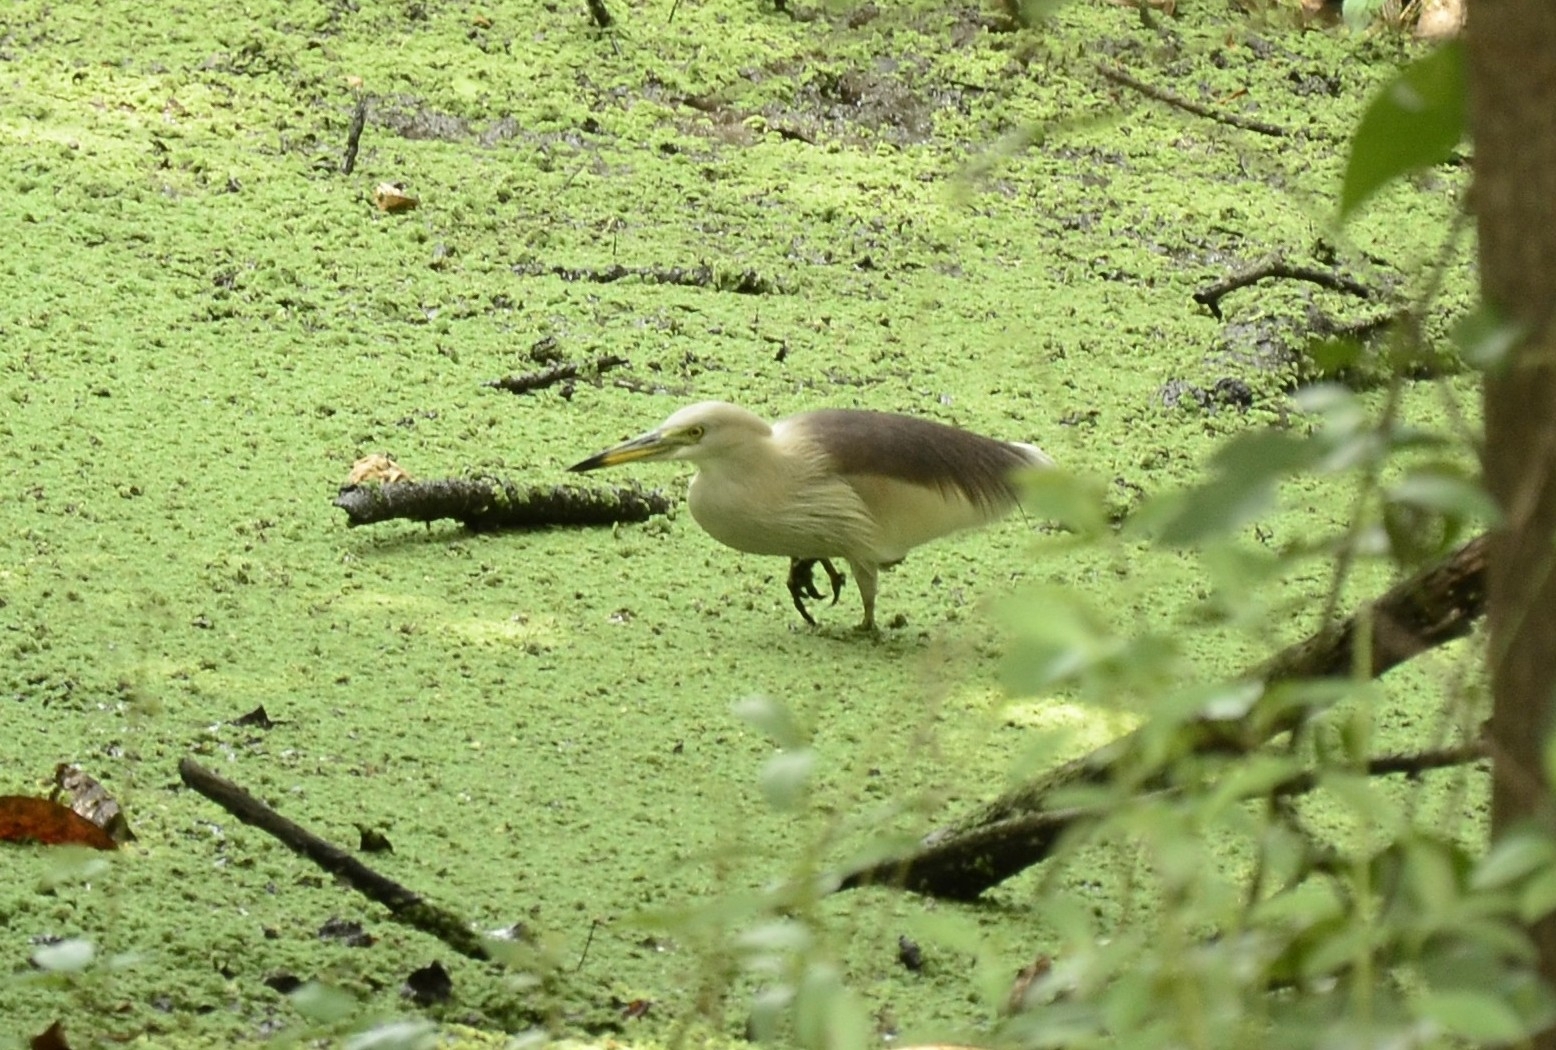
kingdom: Animalia
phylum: Chordata
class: Aves
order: Pelecaniformes
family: Ardeidae
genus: Ardeola
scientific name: Ardeola grayii
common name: Indian pond heron
